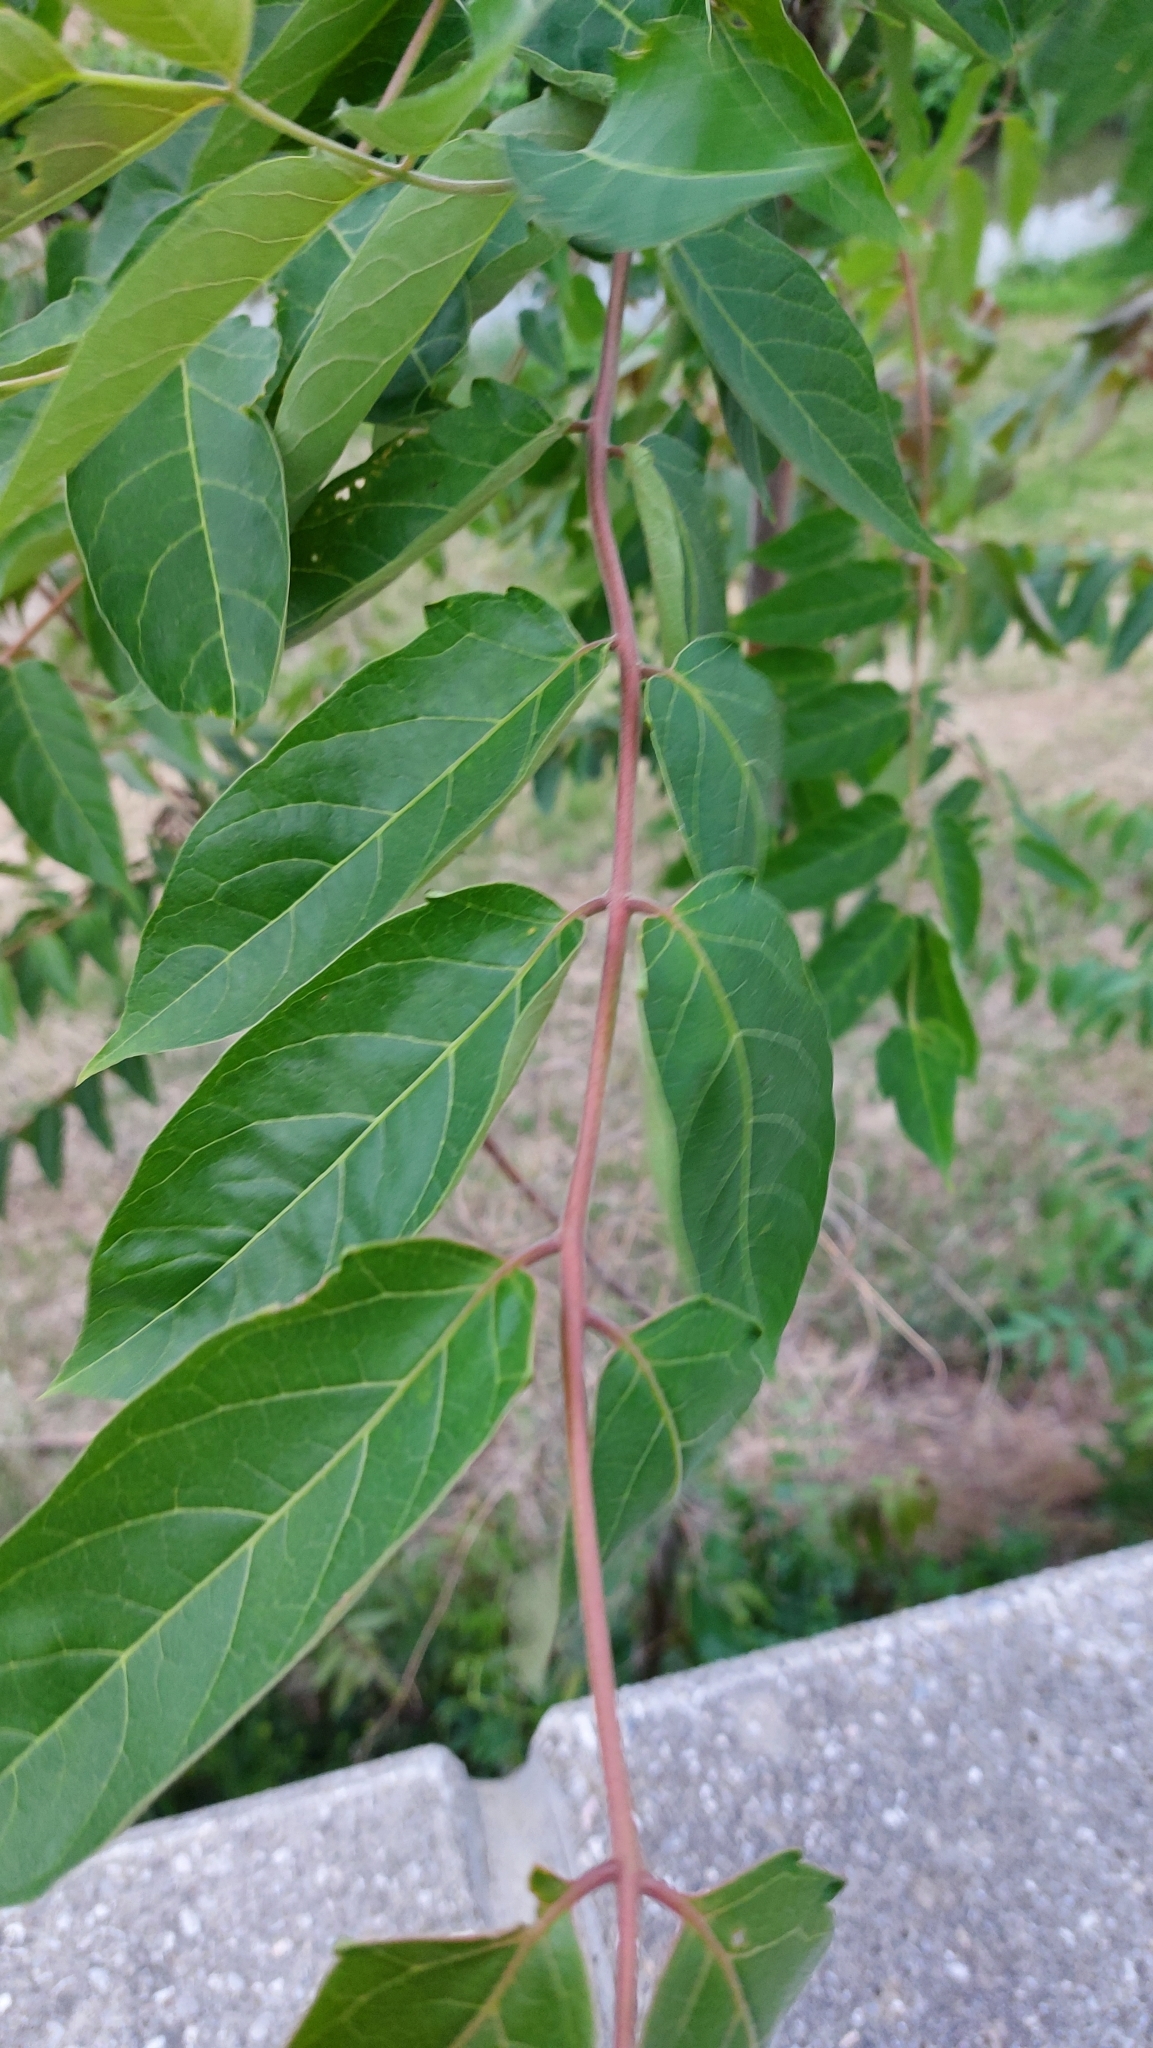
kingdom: Plantae
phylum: Tracheophyta
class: Magnoliopsida
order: Sapindales
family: Simaroubaceae
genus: Ailanthus
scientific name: Ailanthus altissima
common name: Tree-of-heaven
